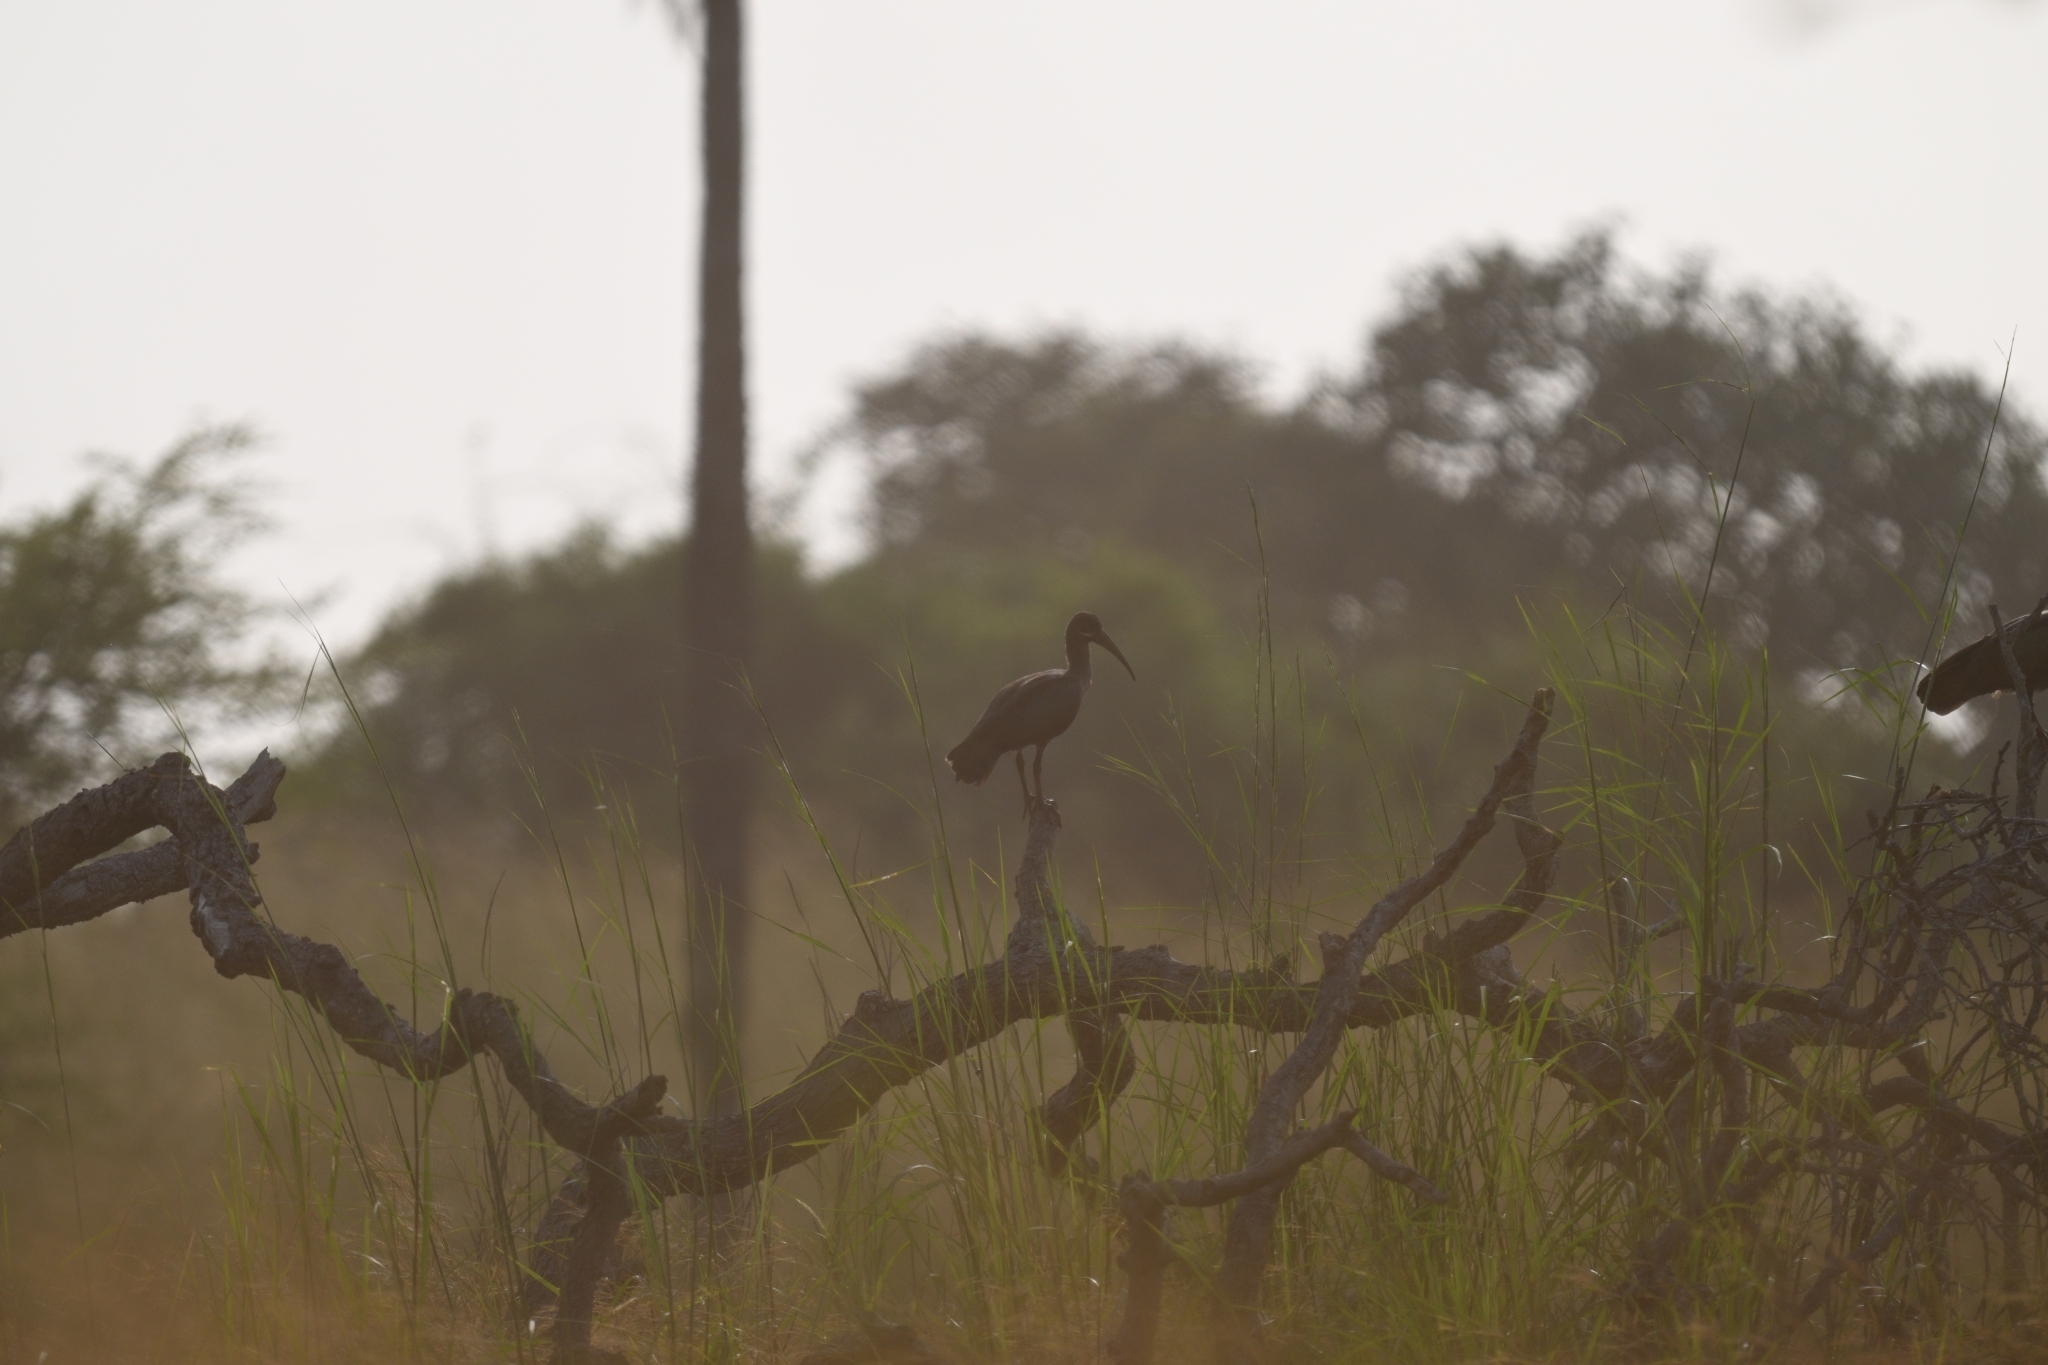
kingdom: Animalia
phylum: Chordata
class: Aves
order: Pelecaniformes
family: Threskiornithidae
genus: Bostrychia
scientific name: Bostrychia hagedash
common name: Hadada ibis
